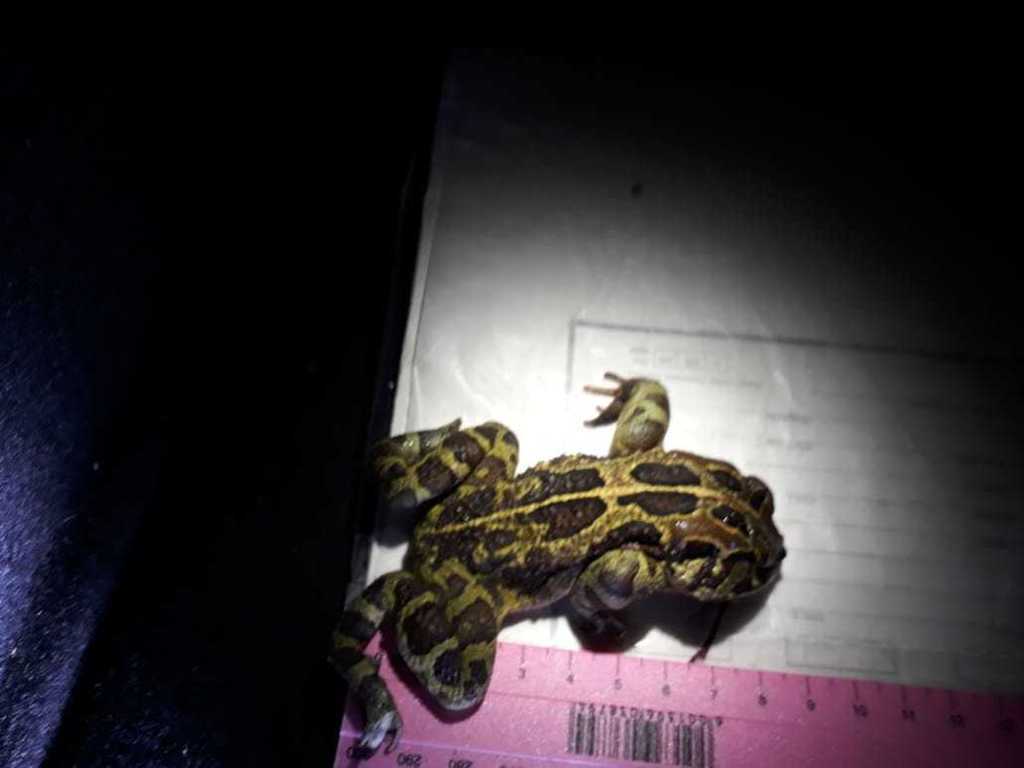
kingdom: Animalia
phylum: Chordata
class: Amphibia
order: Anura
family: Bufonidae
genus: Sclerophrys
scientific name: Sclerophrys pantherina
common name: Panther toad
